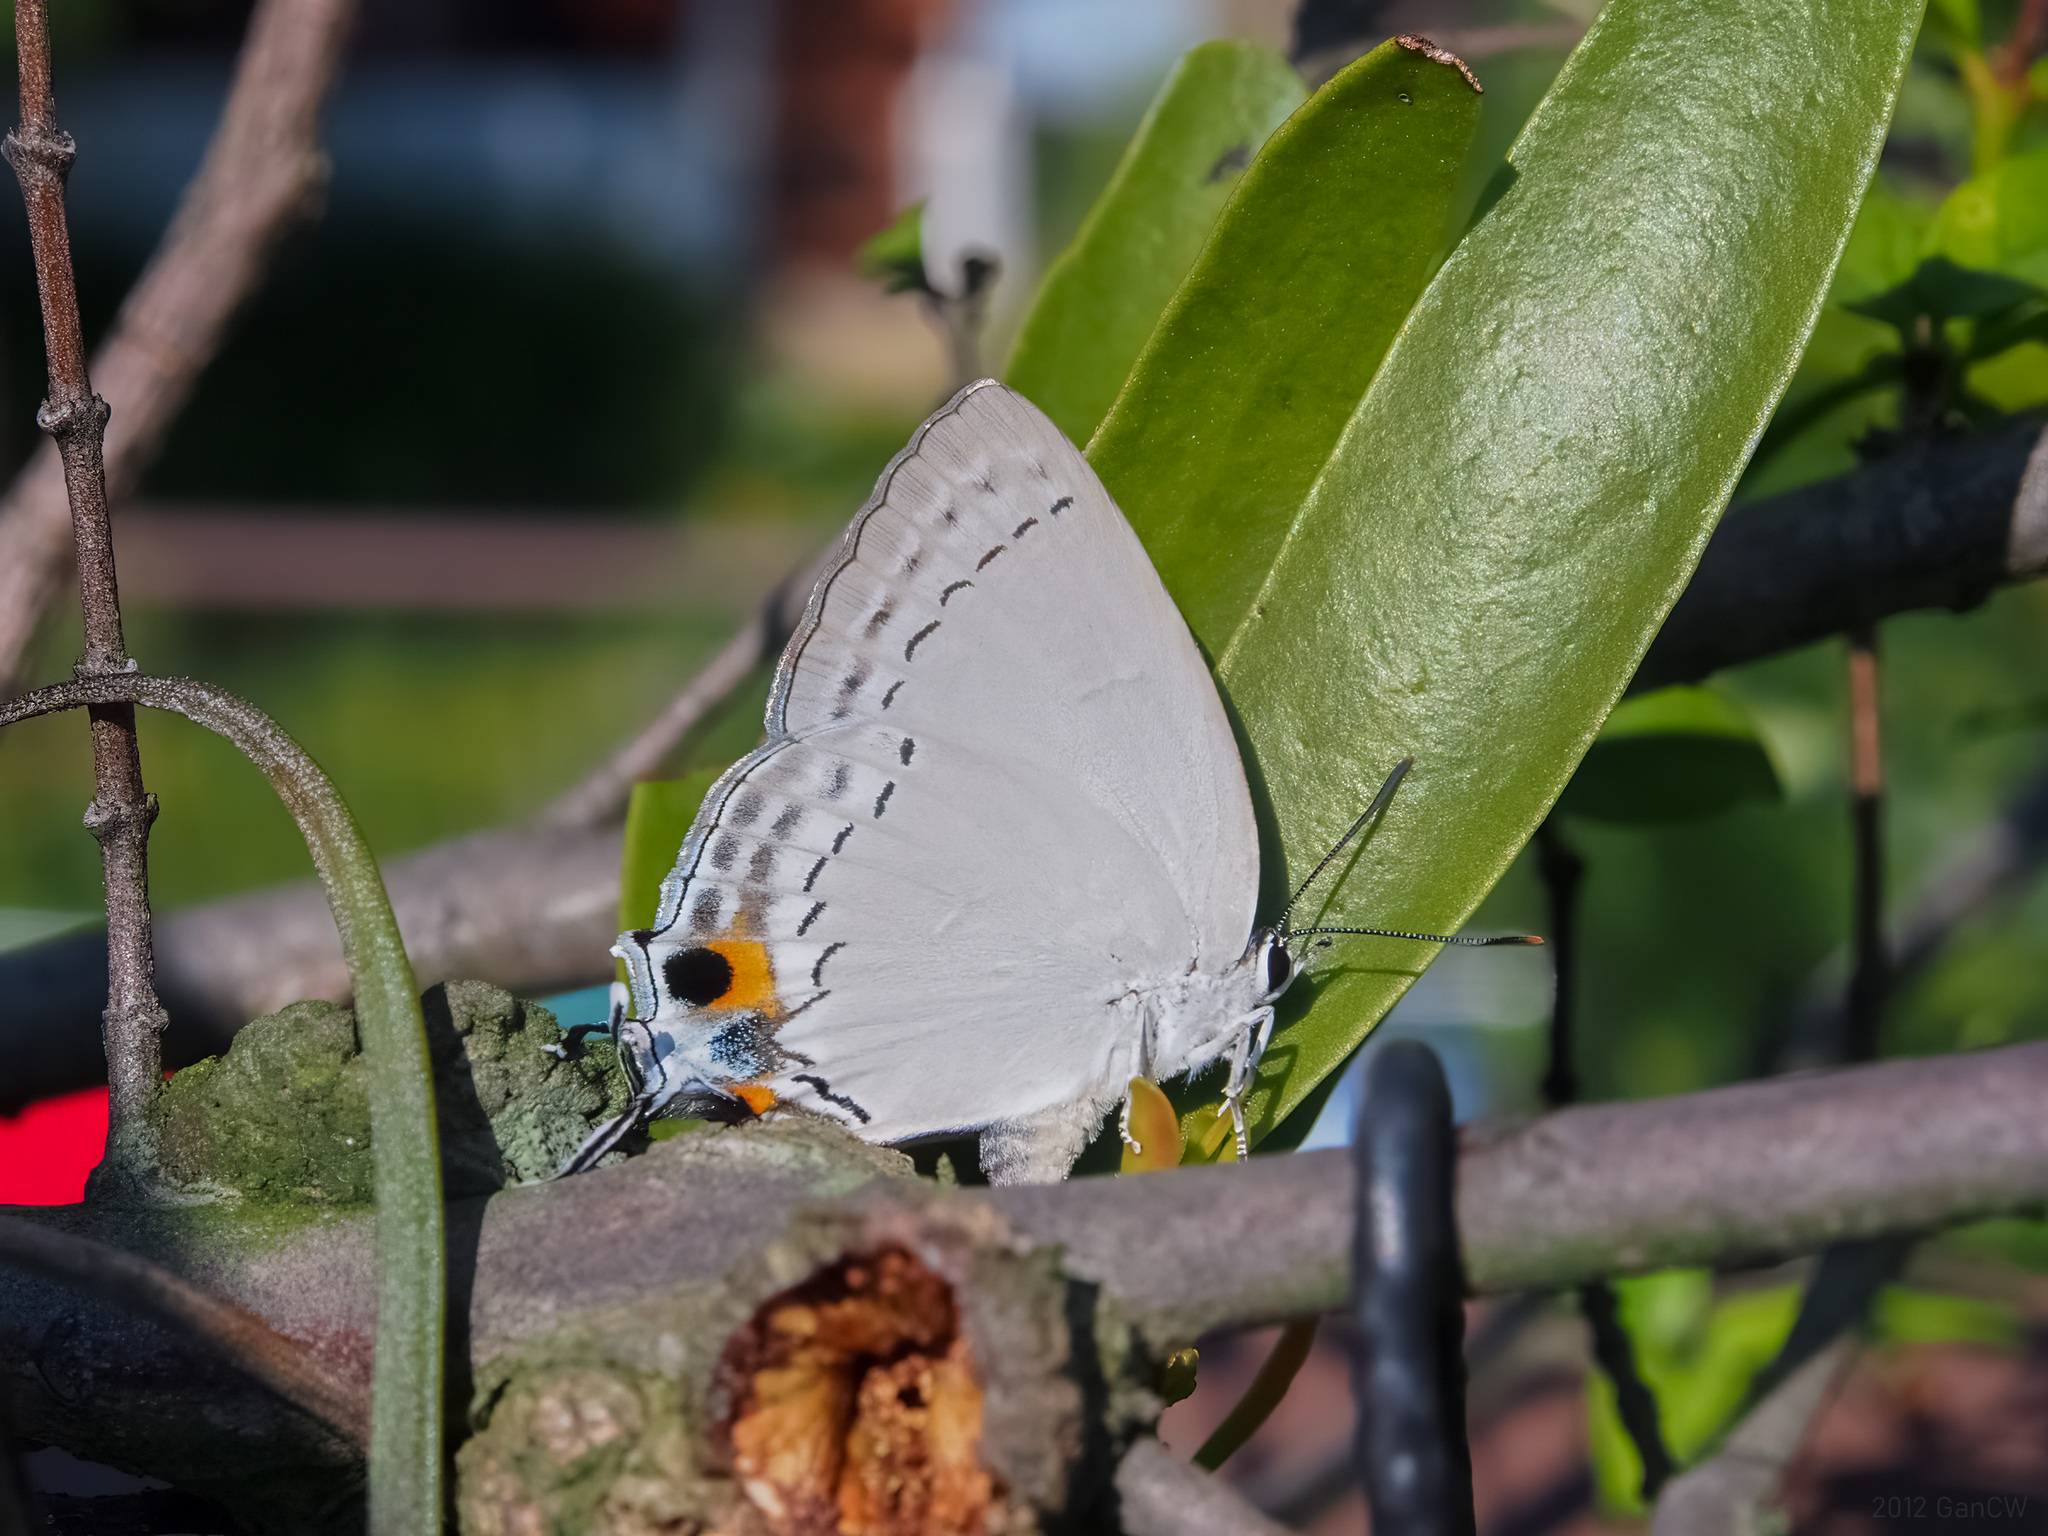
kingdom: Animalia
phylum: Arthropoda
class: Insecta
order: Lepidoptera
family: Lycaenidae
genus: Tajuria
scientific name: Tajuria cippus
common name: Peacock royal
